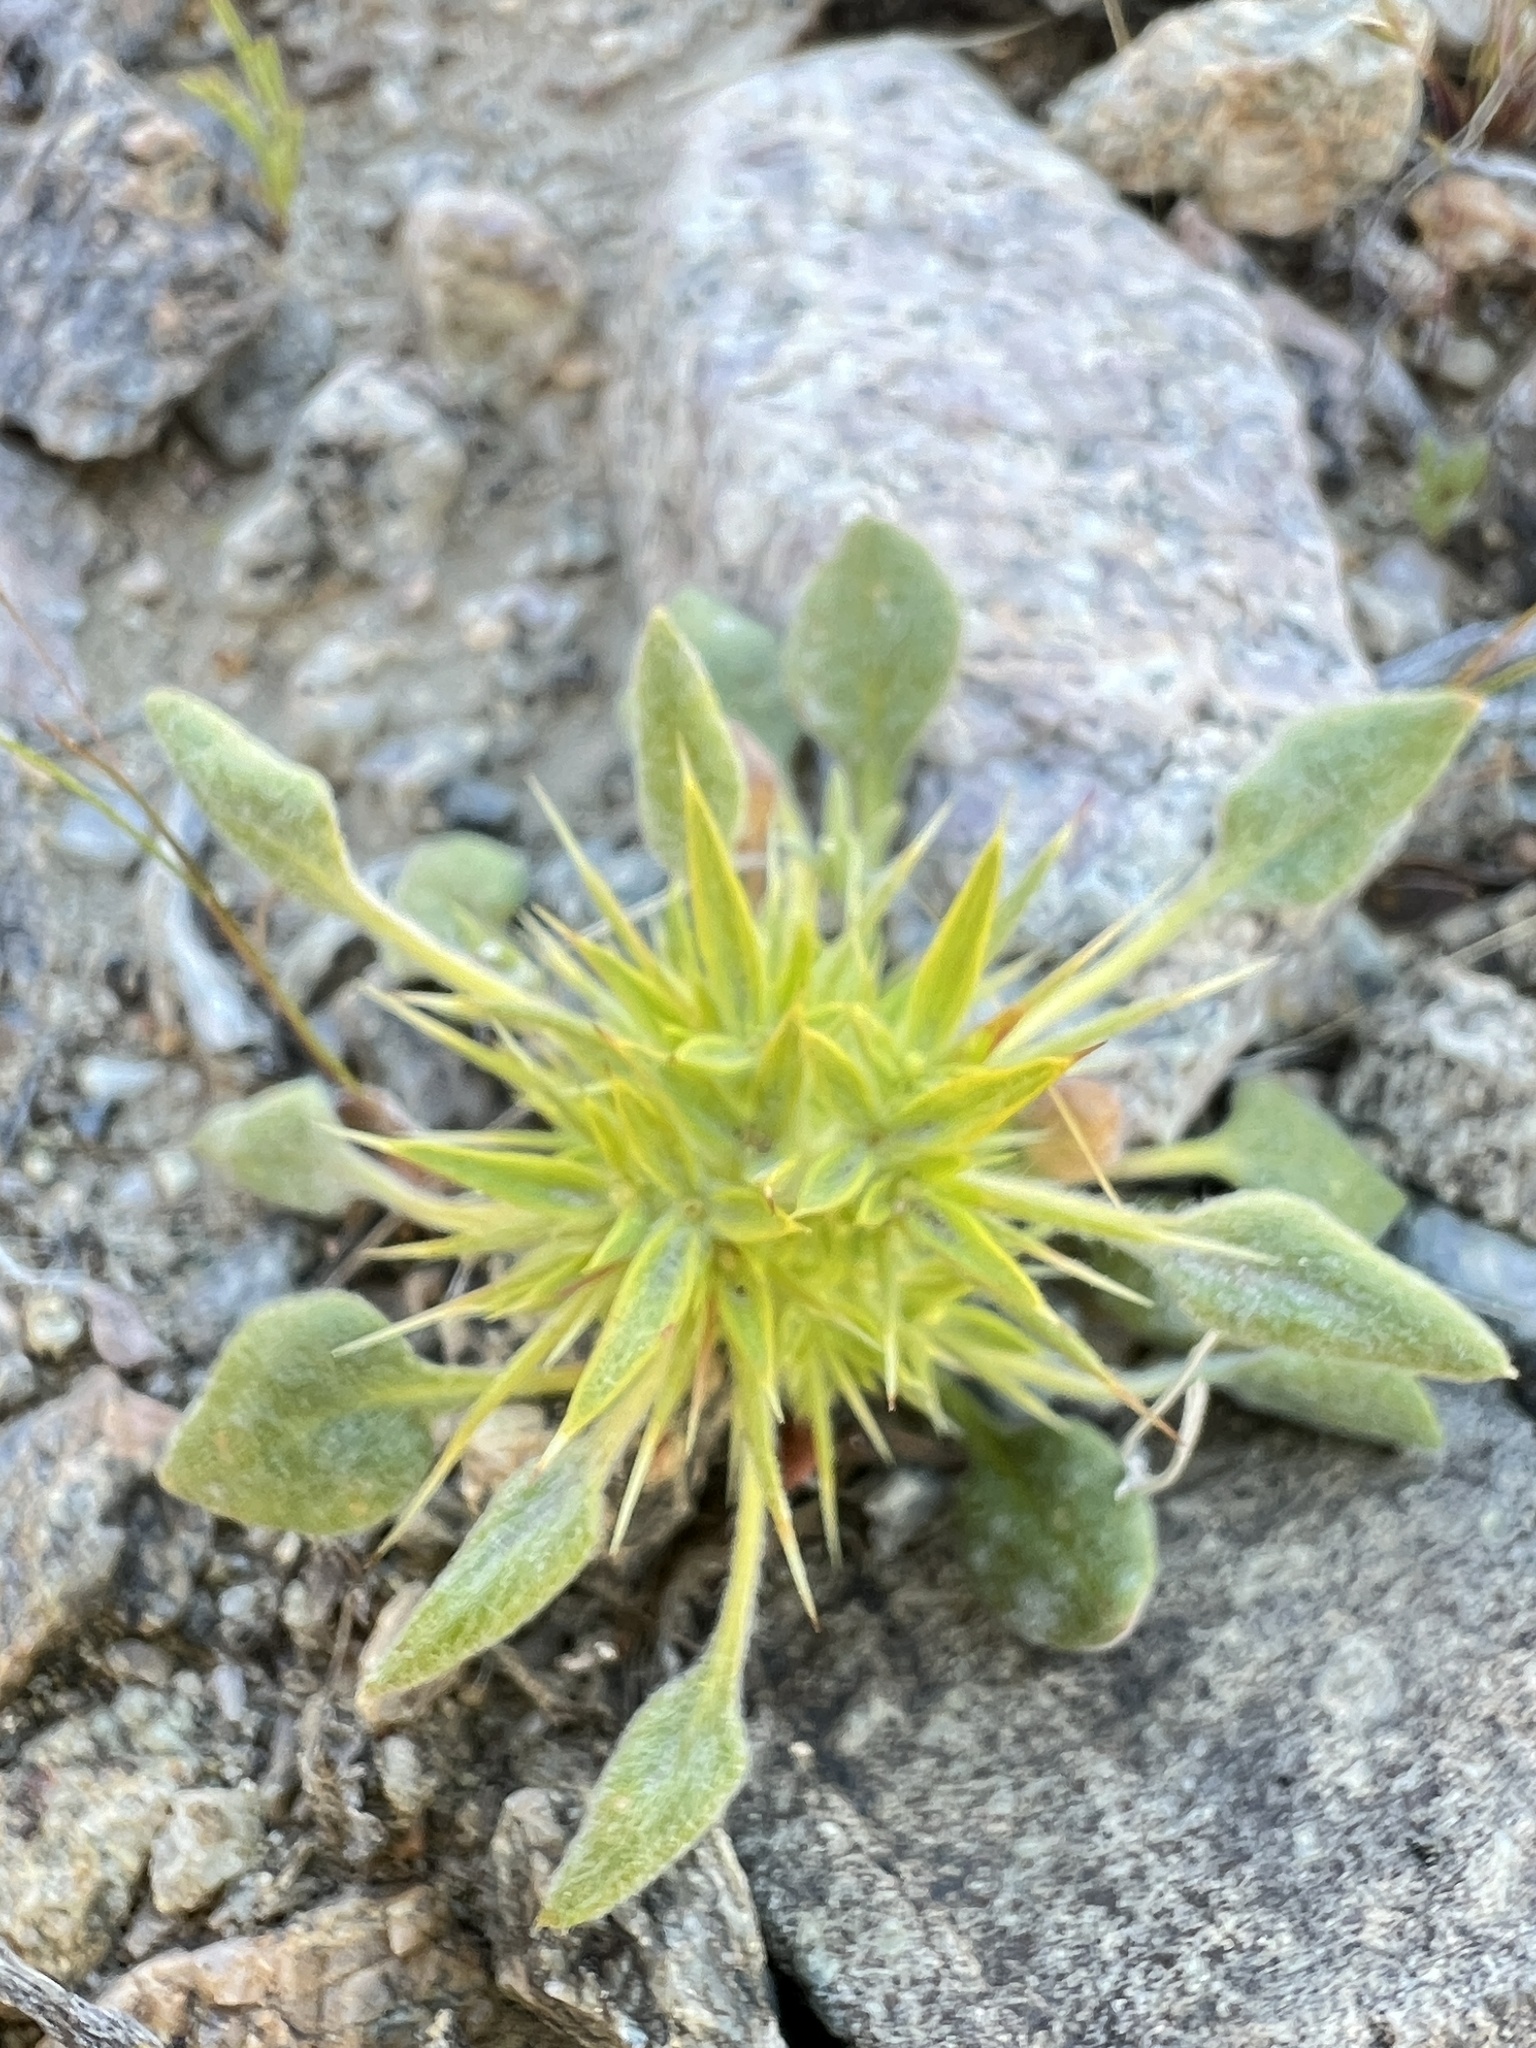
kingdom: Plantae
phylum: Tracheophyta
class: Magnoliopsida
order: Caryophyllales
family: Polygonaceae
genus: Chorizanthe
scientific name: Chorizanthe rigida
